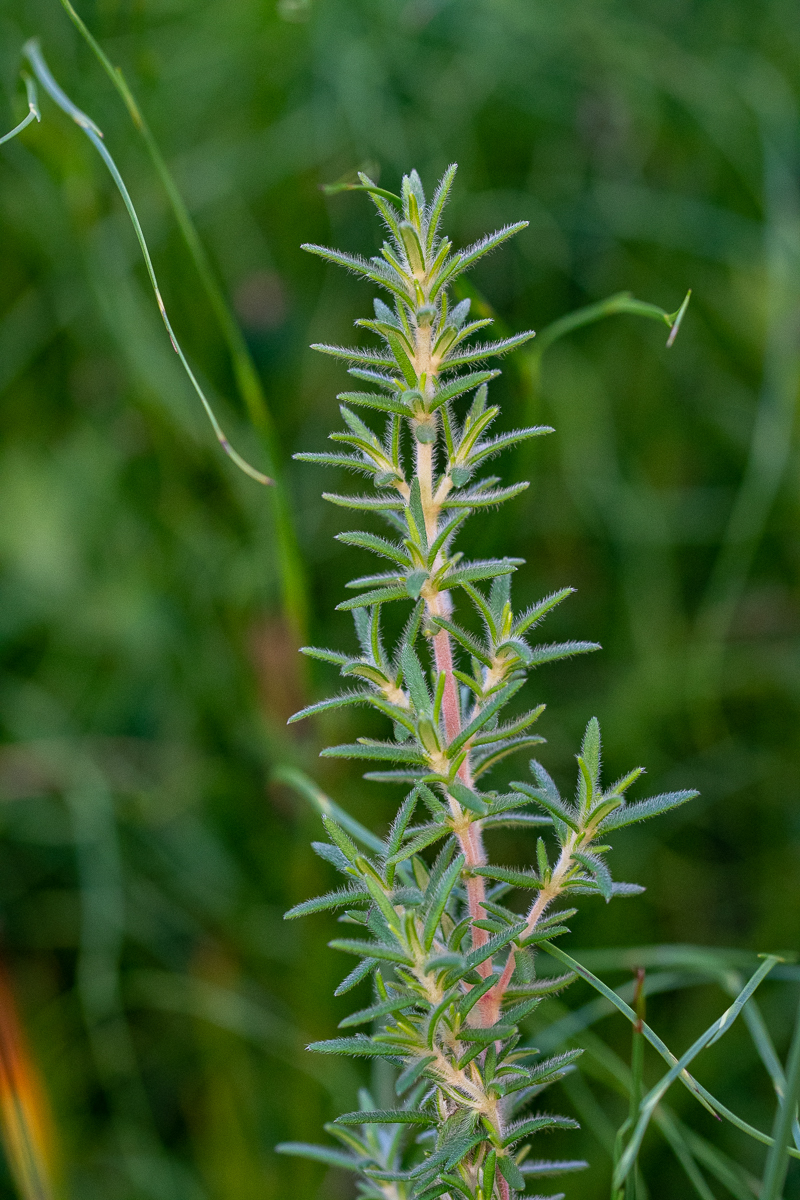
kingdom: Plantae
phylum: Tracheophyta
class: Magnoliopsida
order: Cornales
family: Grubbiaceae
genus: Grubbia
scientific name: Grubbia rosmarinifolia
